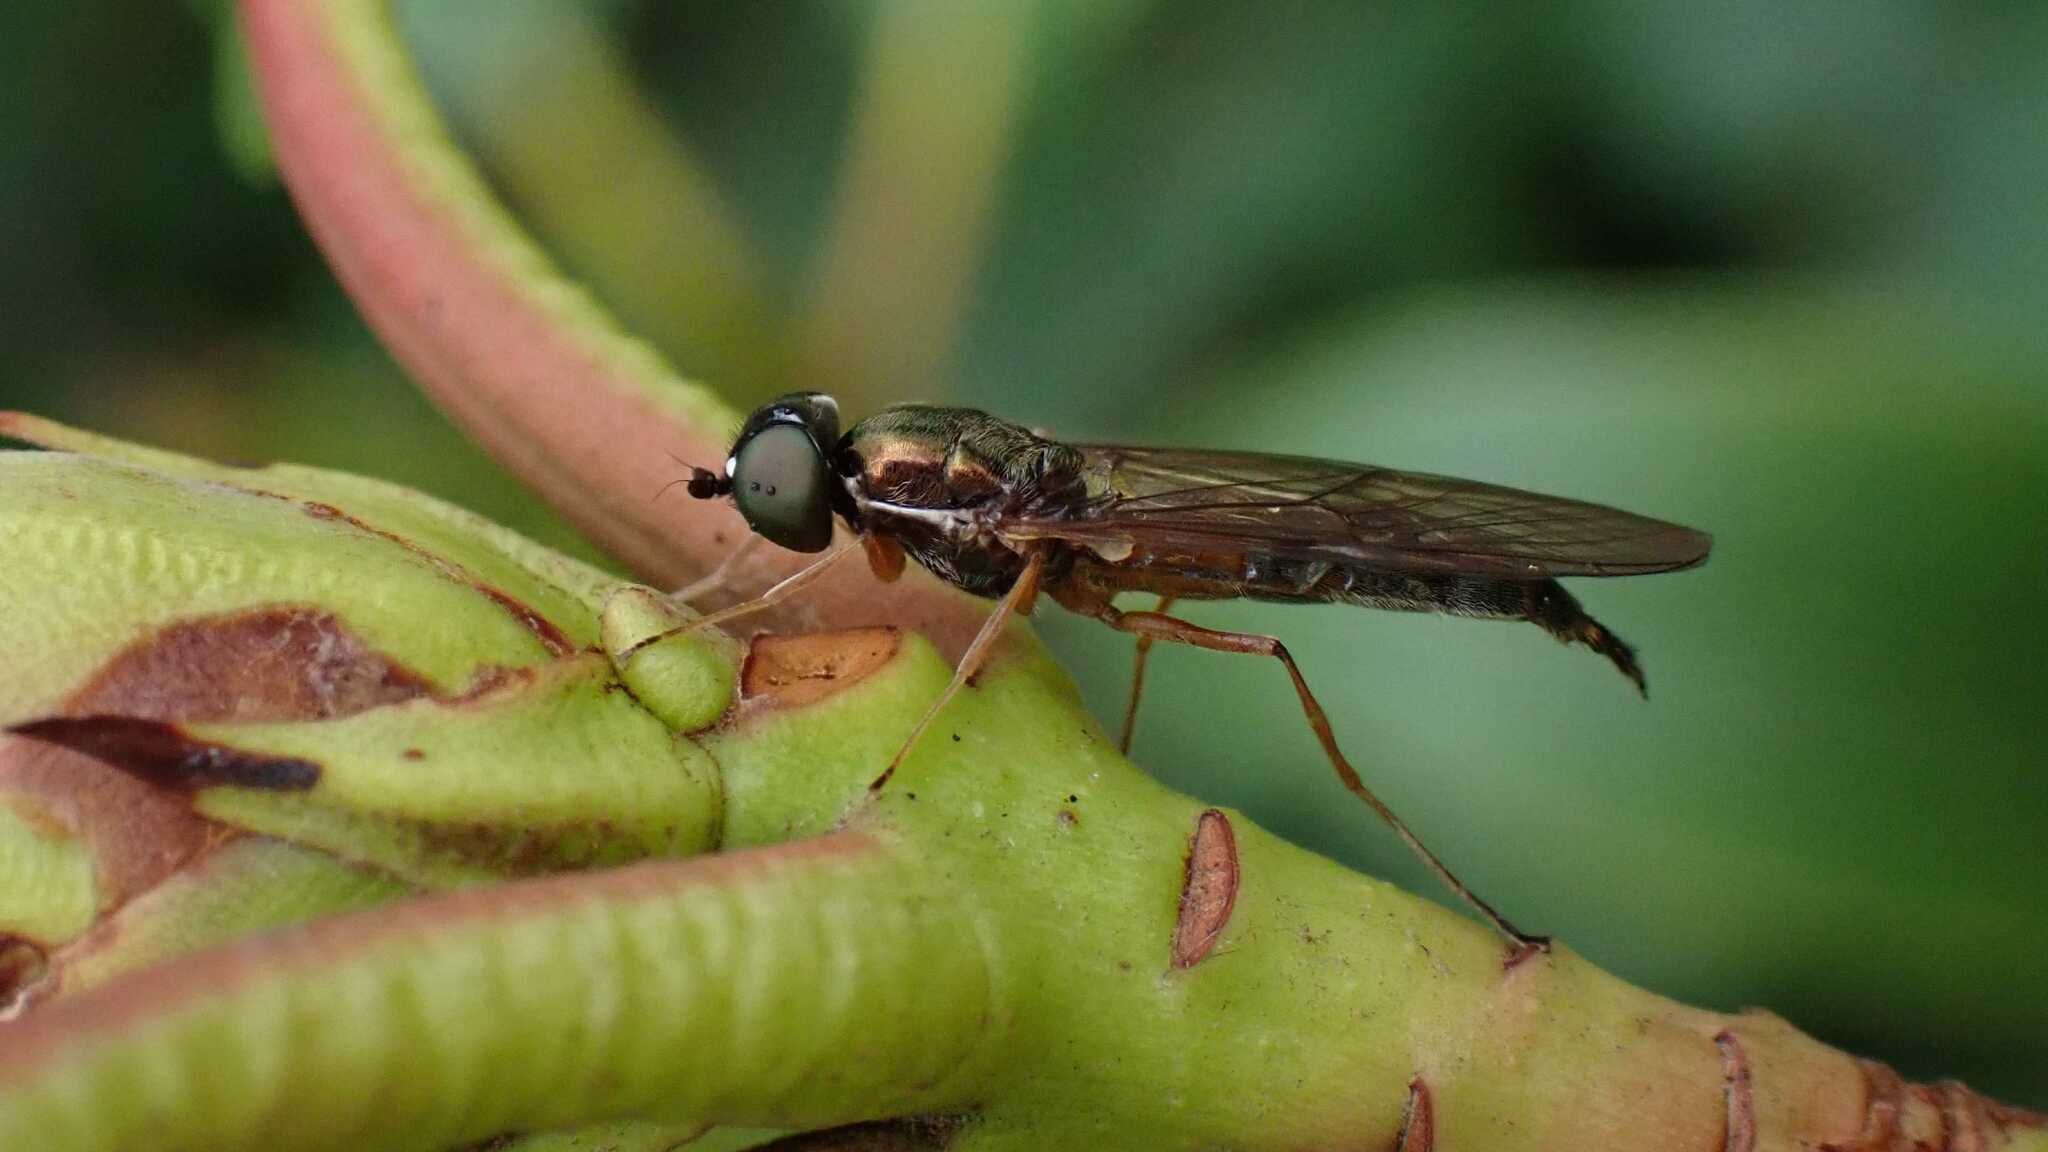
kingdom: Animalia
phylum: Arthropoda
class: Insecta
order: Diptera
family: Stratiomyidae
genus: Sargus
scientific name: Sargus bipunctatus
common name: Twin-spot centurion
